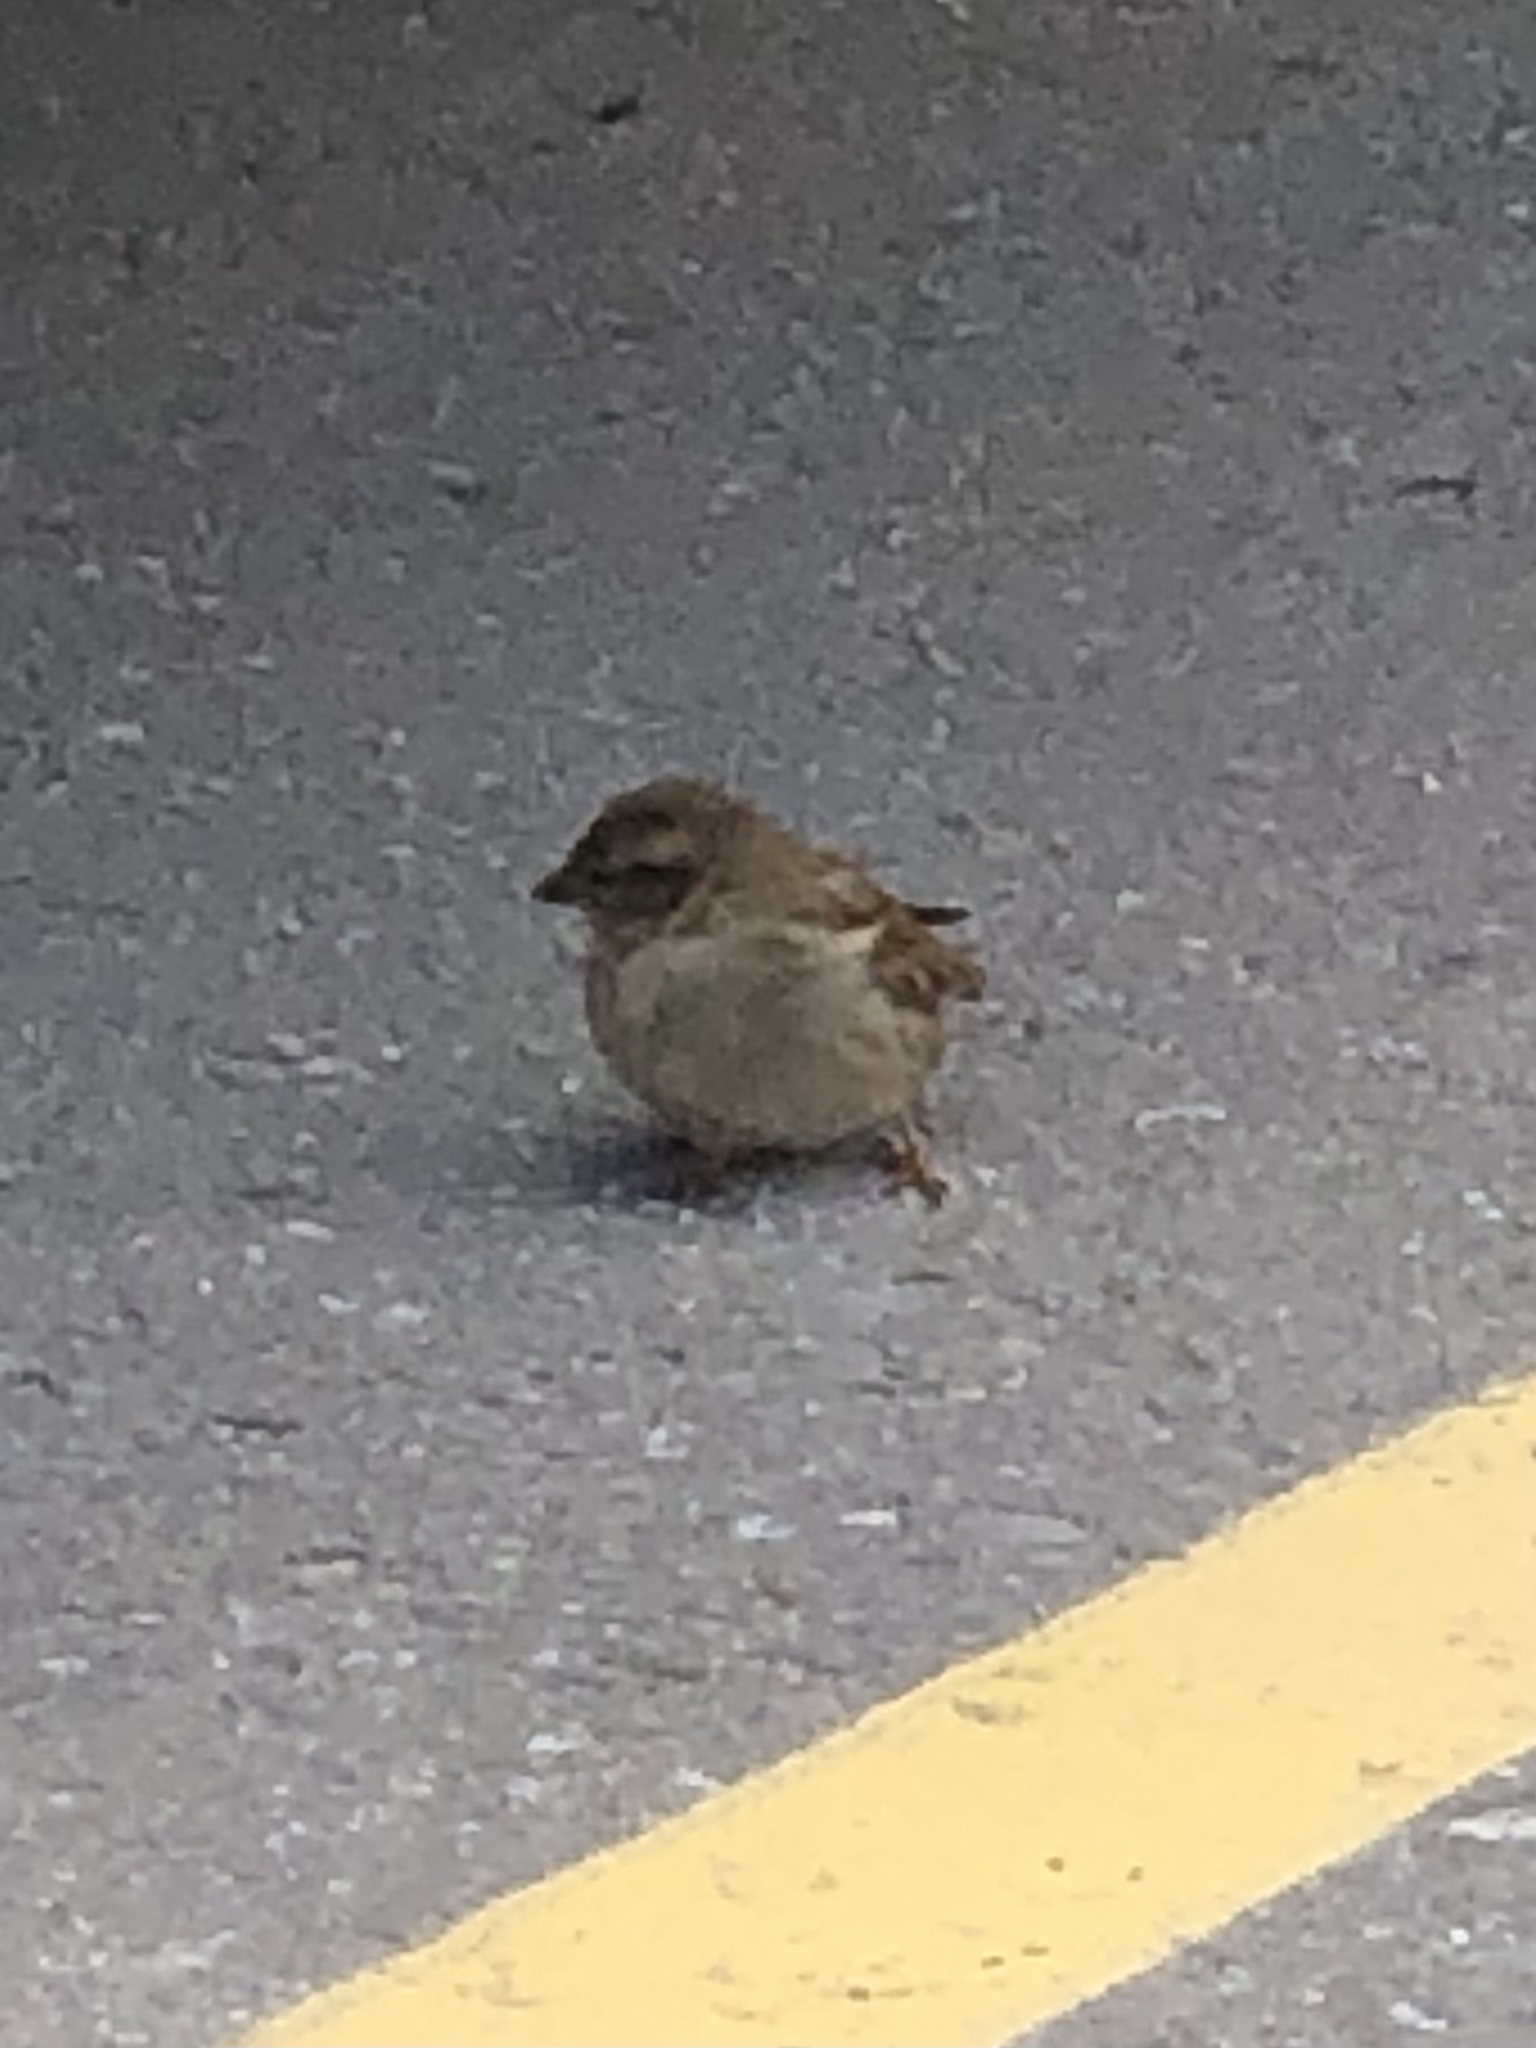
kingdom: Animalia
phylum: Chordata
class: Aves
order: Passeriformes
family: Passeridae
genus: Passer
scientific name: Passer domesticus
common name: House sparrow
